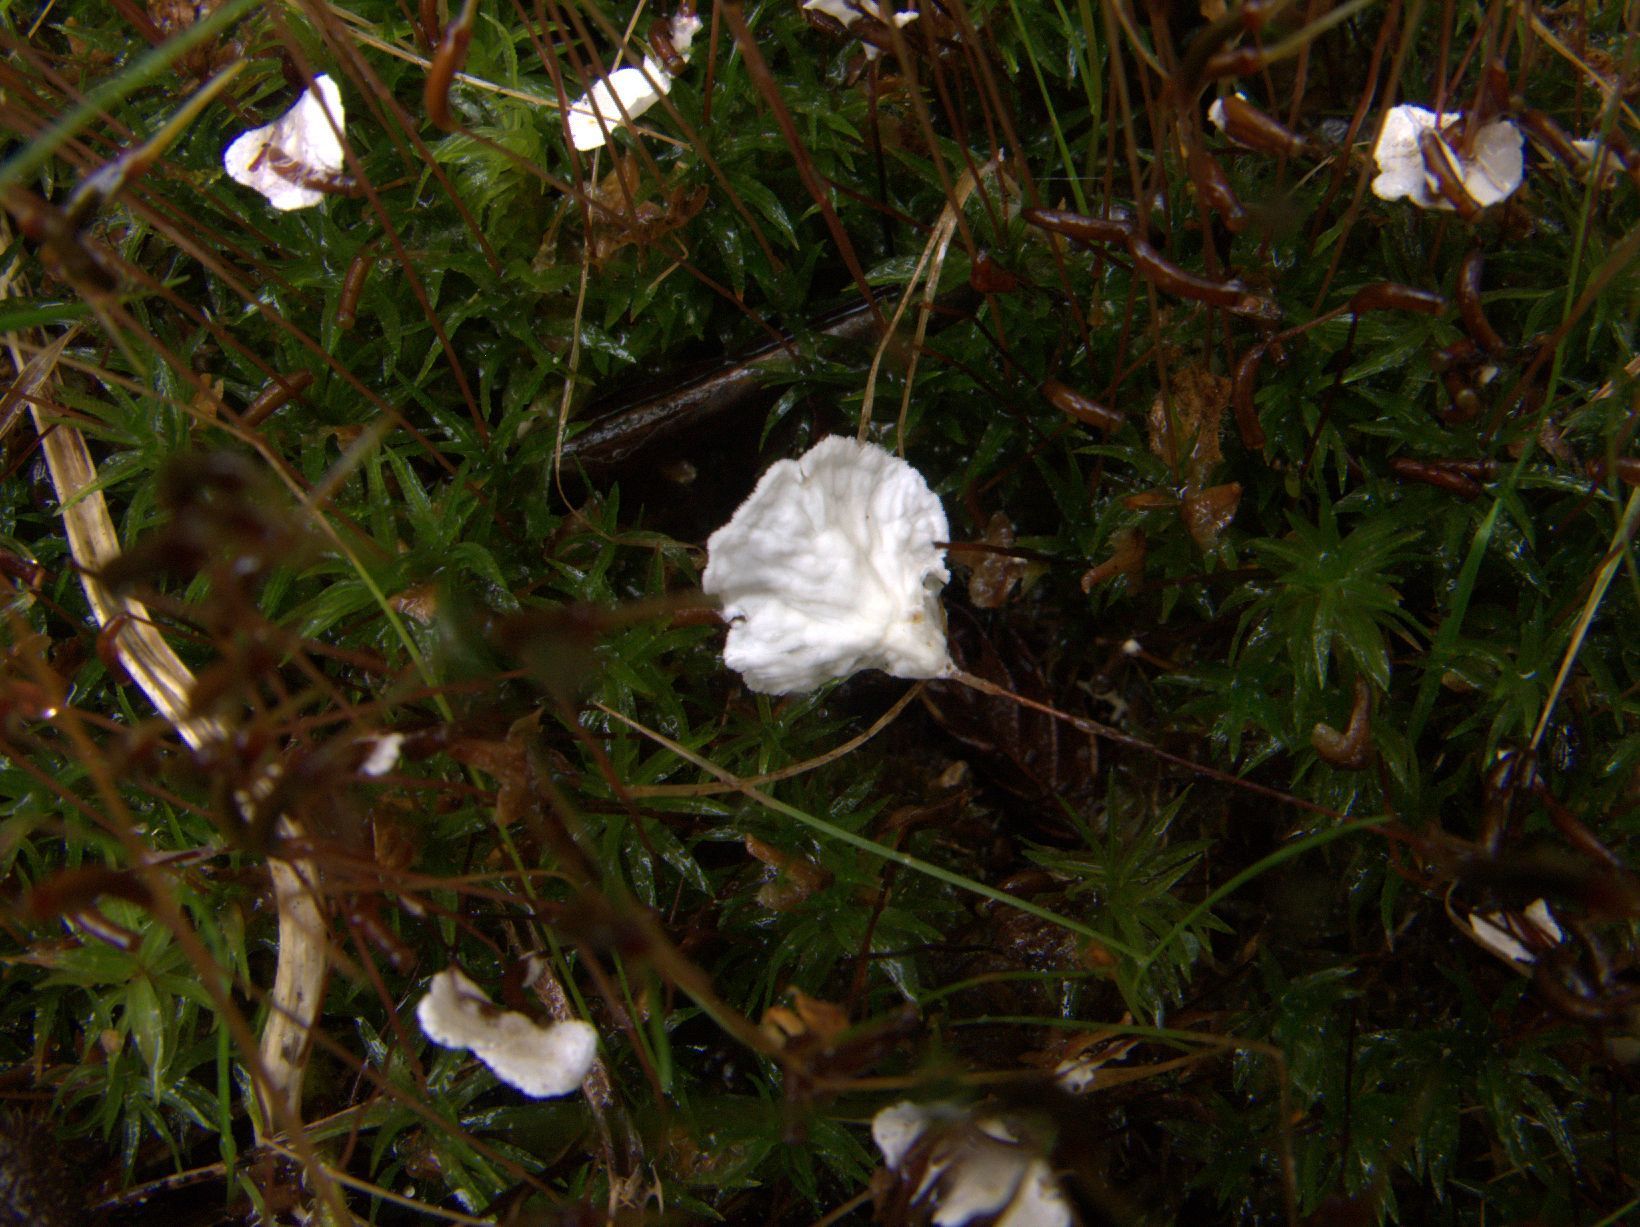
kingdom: Fungi
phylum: Basidiomycota
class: Agaricomycetes
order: Hymenochaetales
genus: Muscinupta
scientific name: Muscinupta laevis
